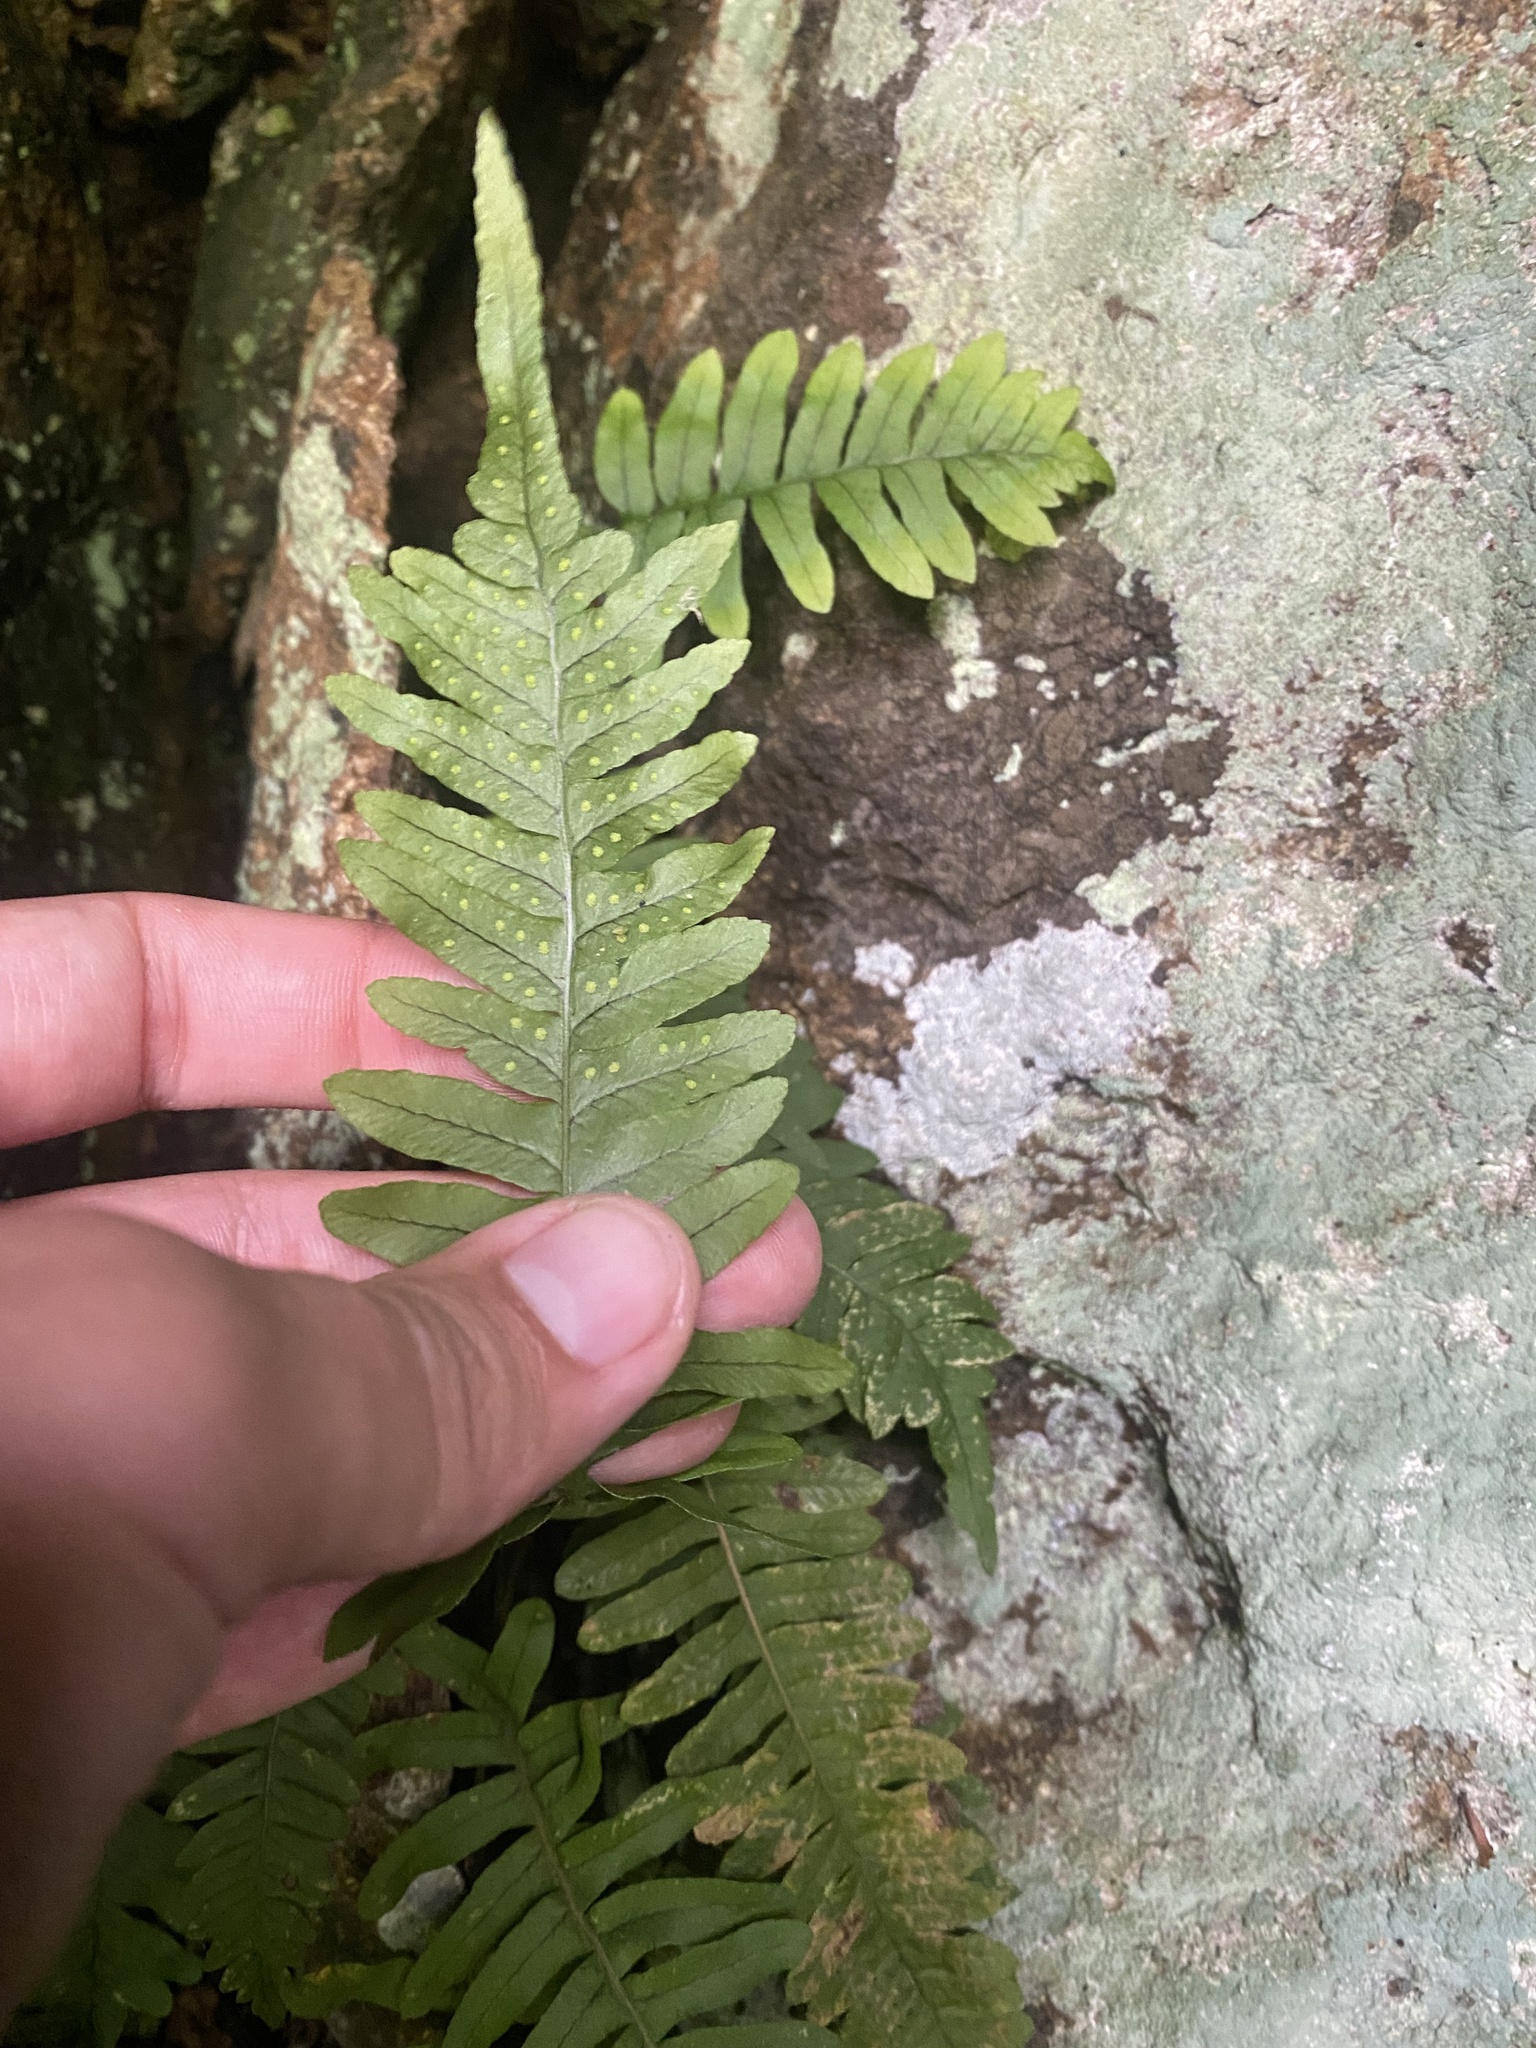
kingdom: Plantae
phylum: Tracheophyta
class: Polypodiopsida
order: Polypodiales
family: Polypodiaceae
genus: Polypodium
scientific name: Polypodium vulgare
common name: Common polypody
